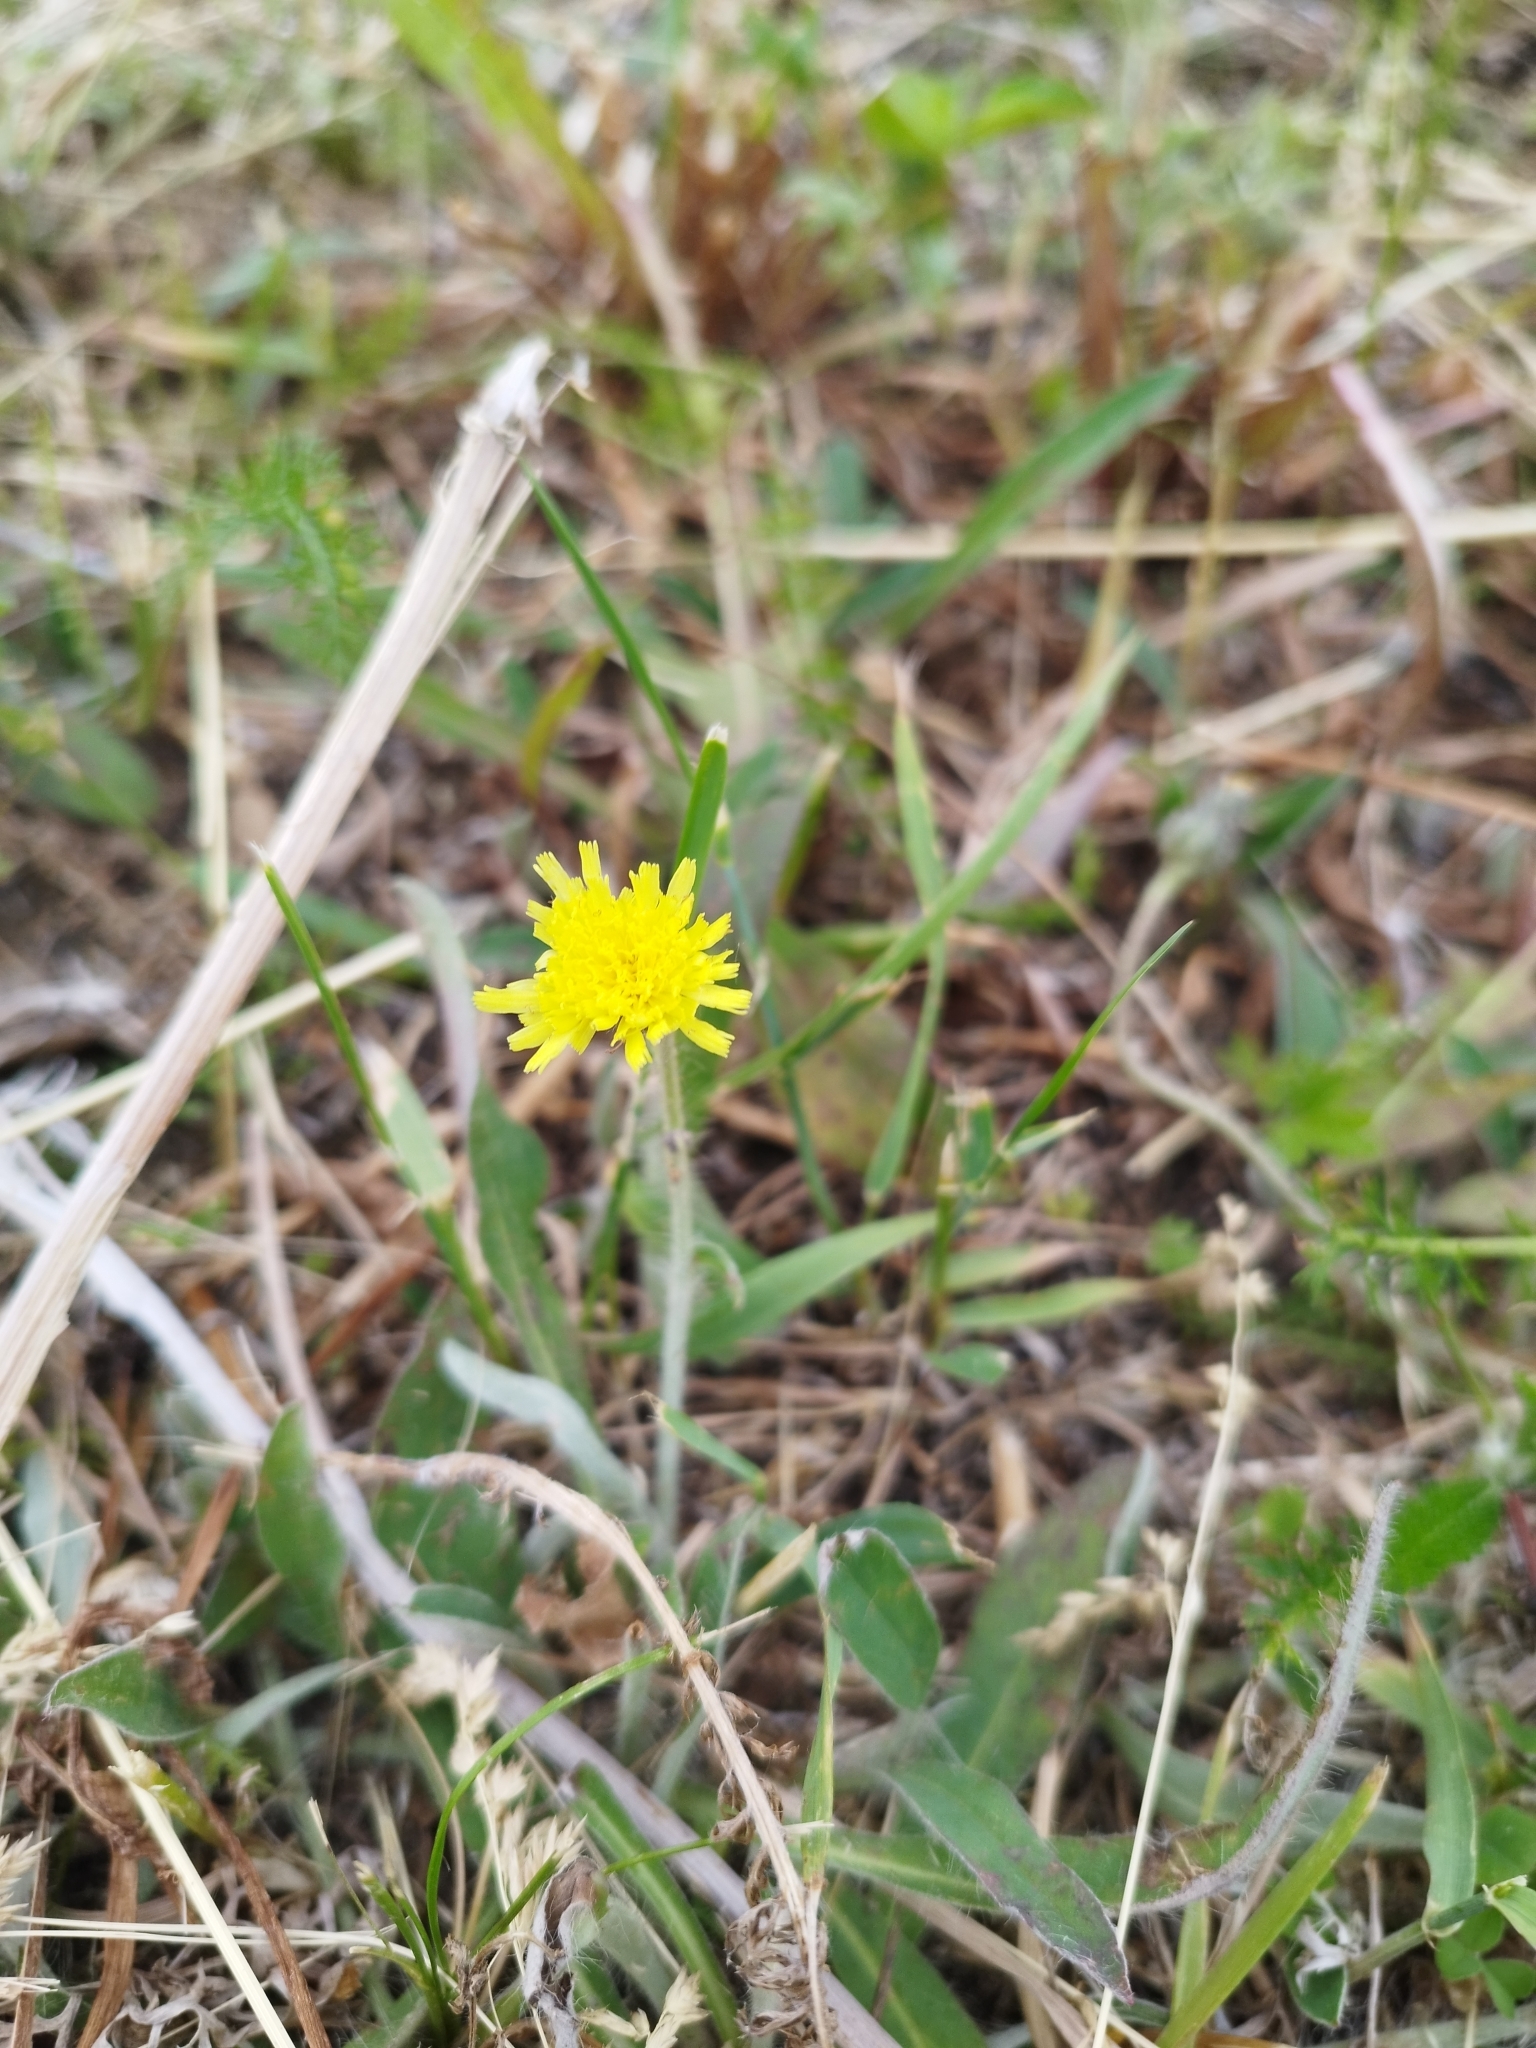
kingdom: Plantae
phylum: Tracheophyta
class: Magnoliopsida
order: Asterales
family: Asteraceae
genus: Pilosella
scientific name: Pilosella officinarum
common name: Mouse-ear hawkweed
